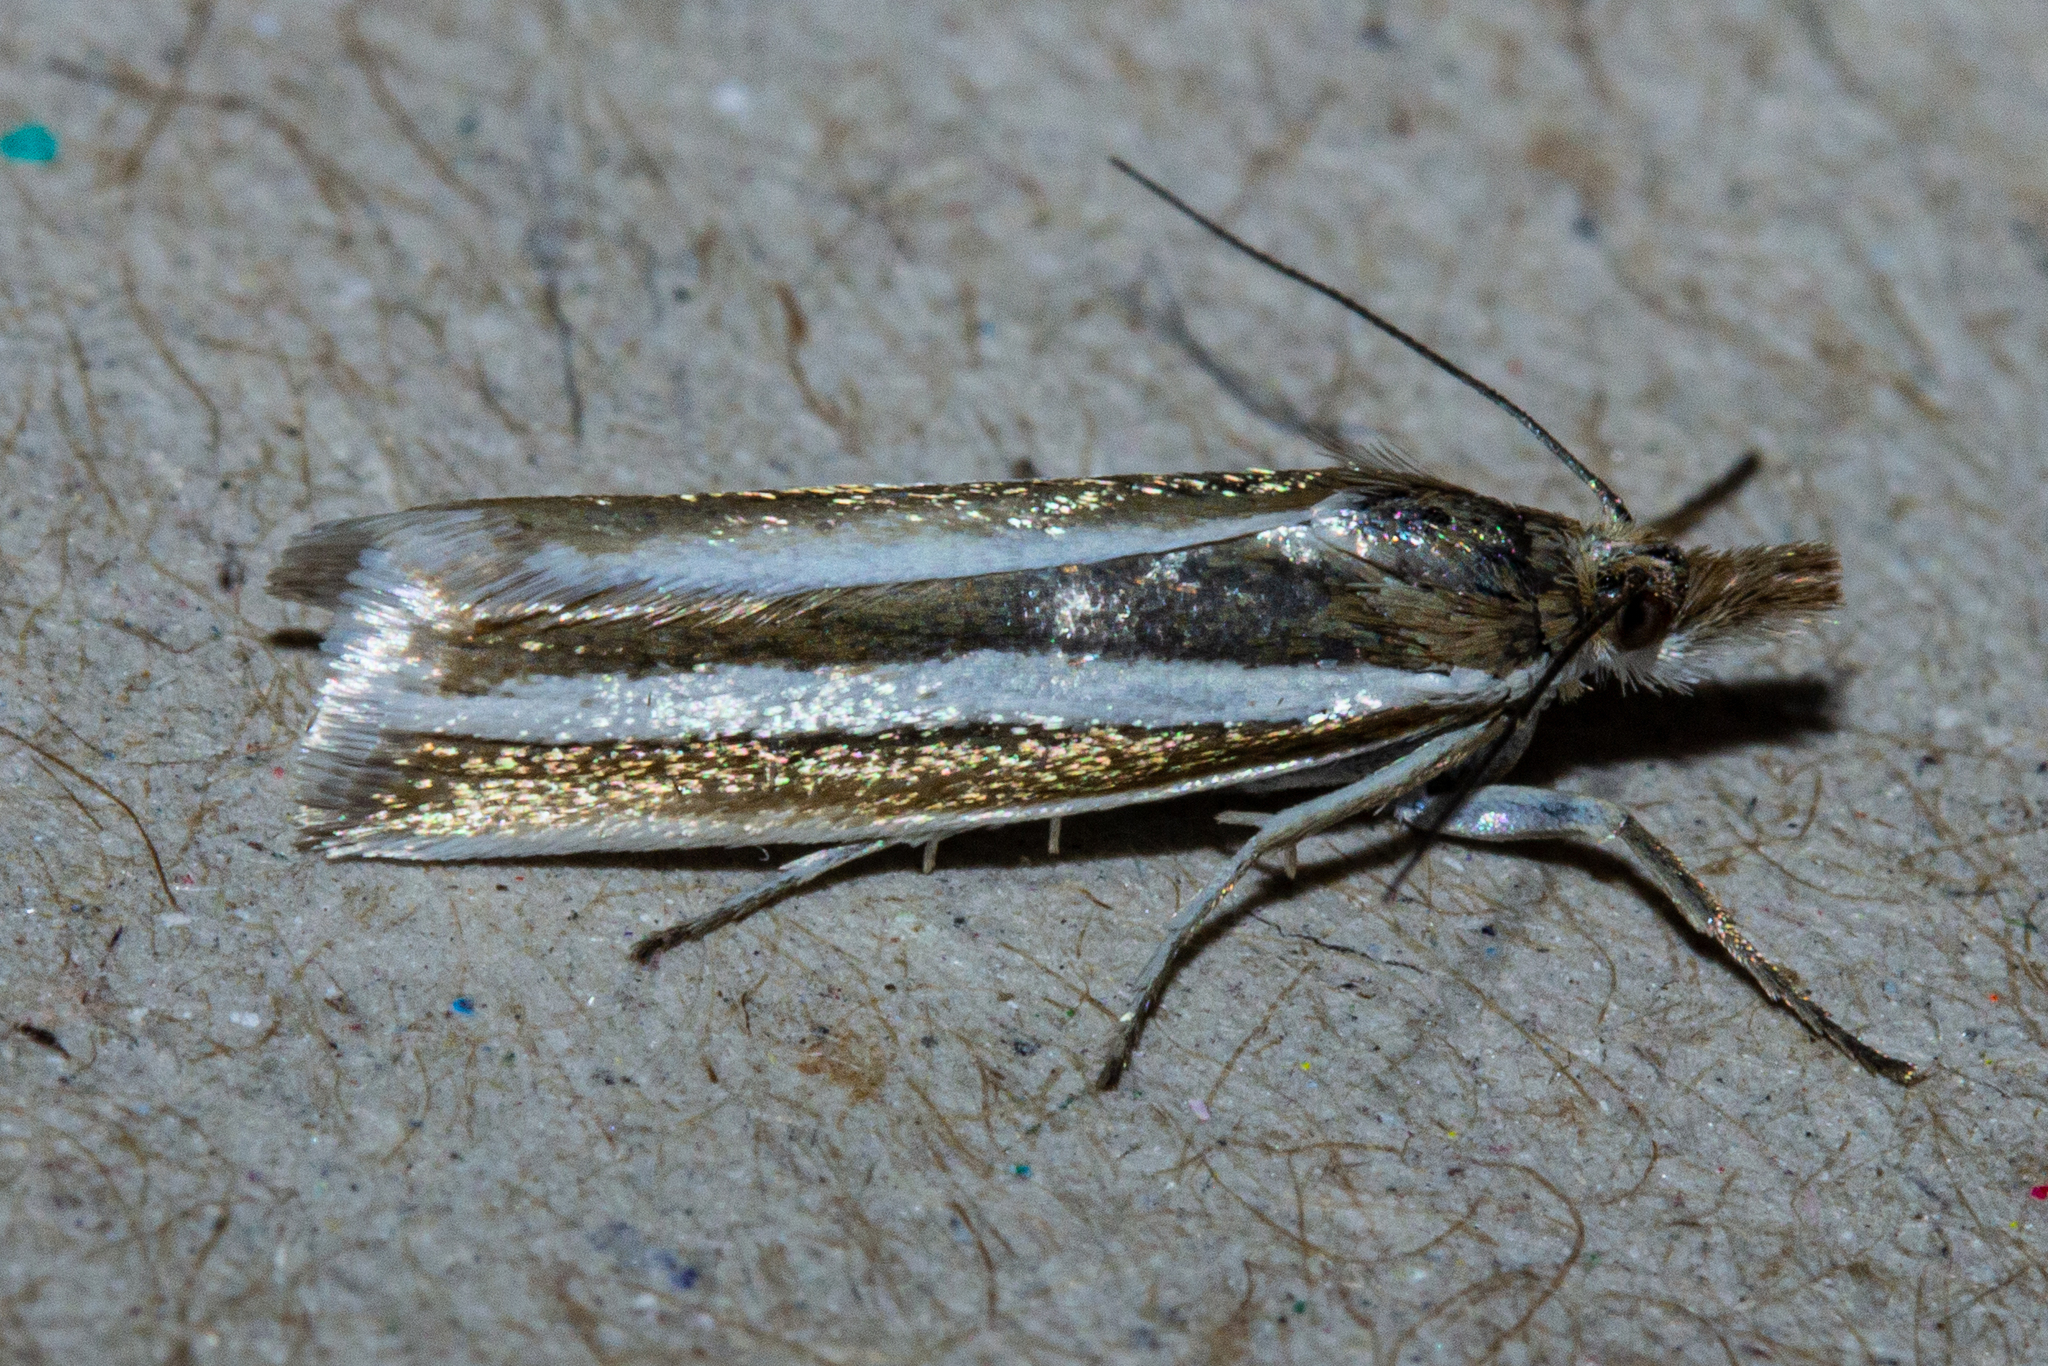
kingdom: Animalia
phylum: Arthropoda
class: Insecta
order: Lepidoptera
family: Crambidae
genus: Orocrambus
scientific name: Orocrambus aethonellus
